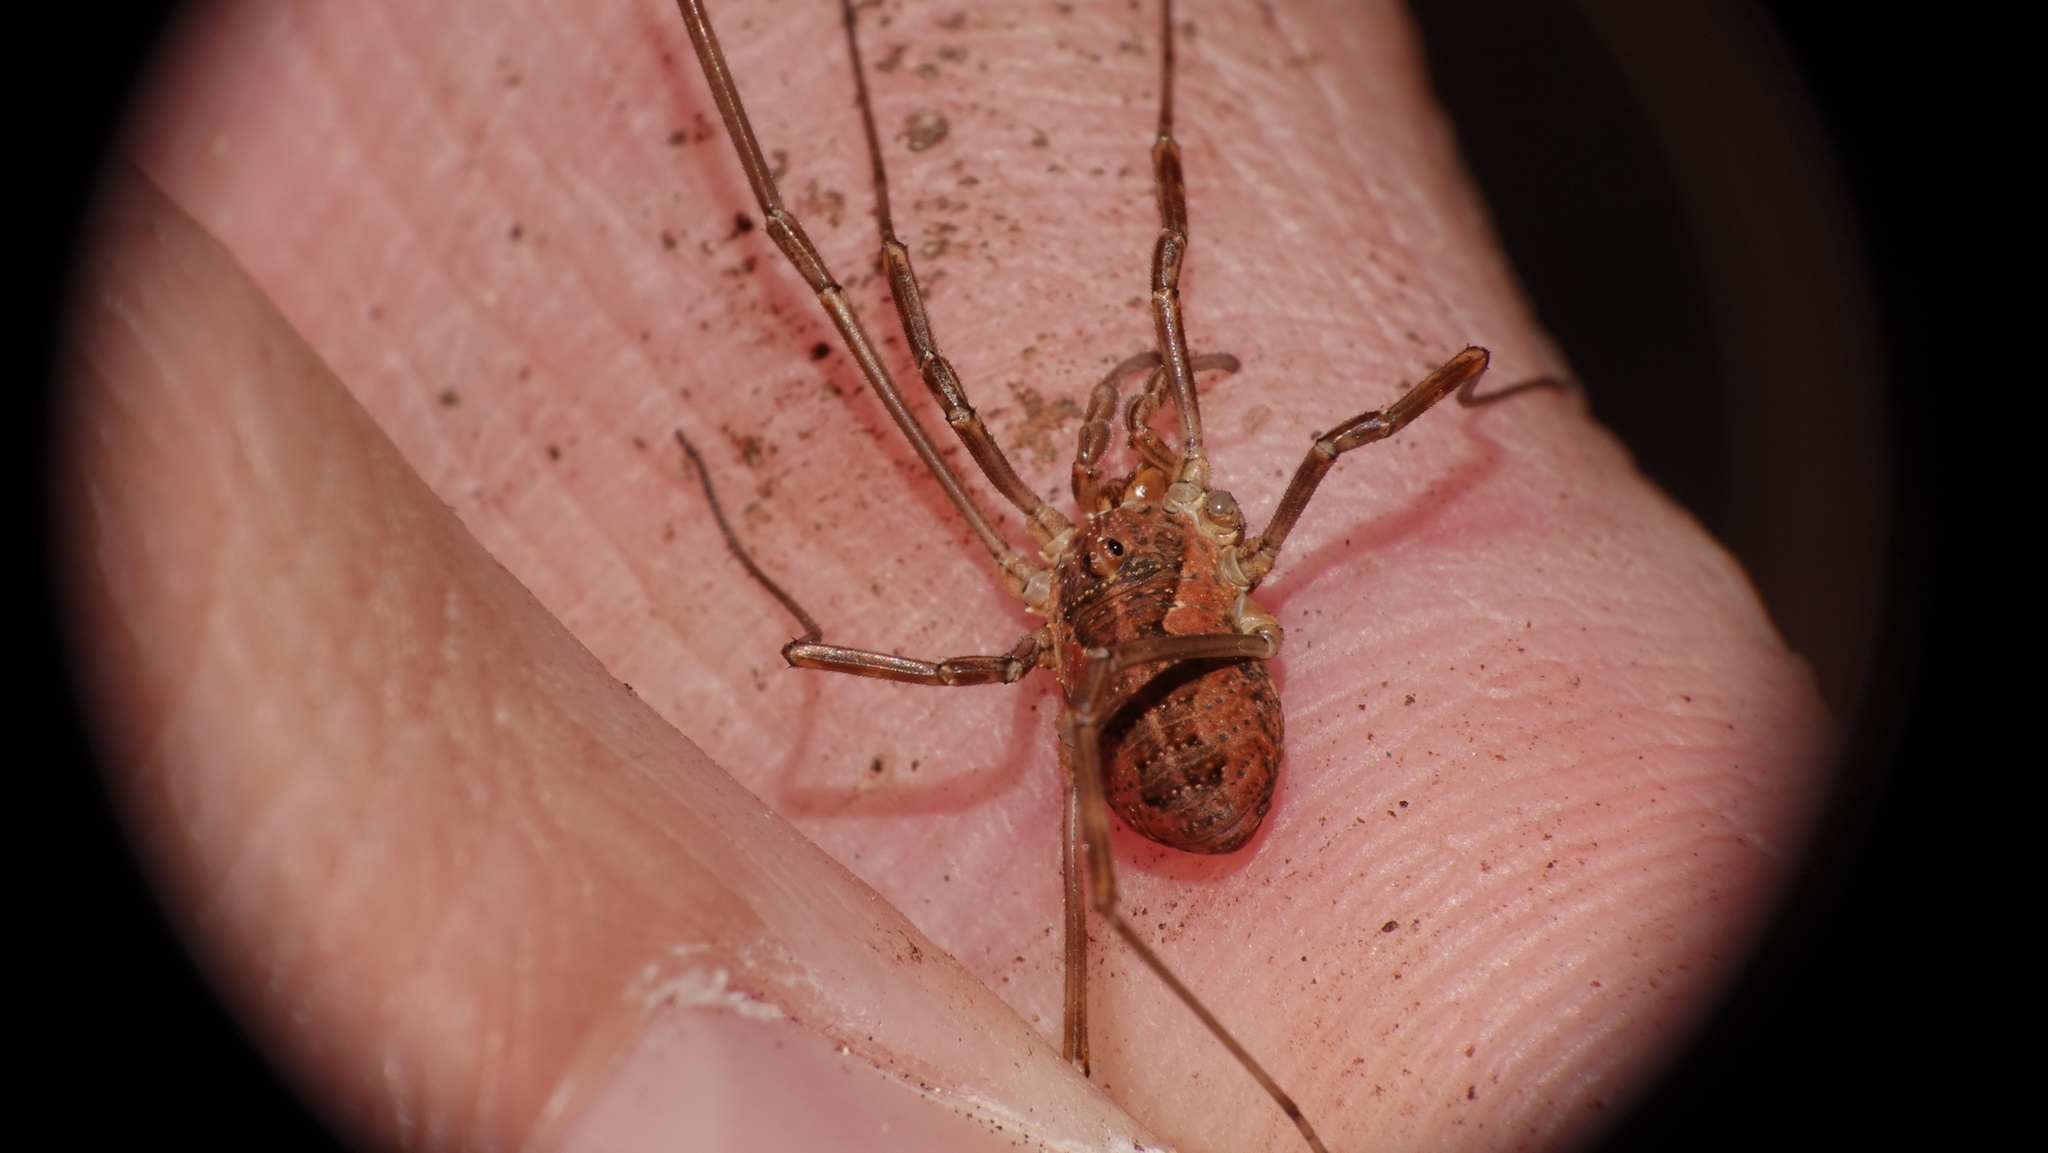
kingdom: Animalia
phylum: Arthropoda
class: Arachnida
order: Opiliones
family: Phalangiidae
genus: Mitopus
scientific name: Mitopus morio
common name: Saddleback harvestman
